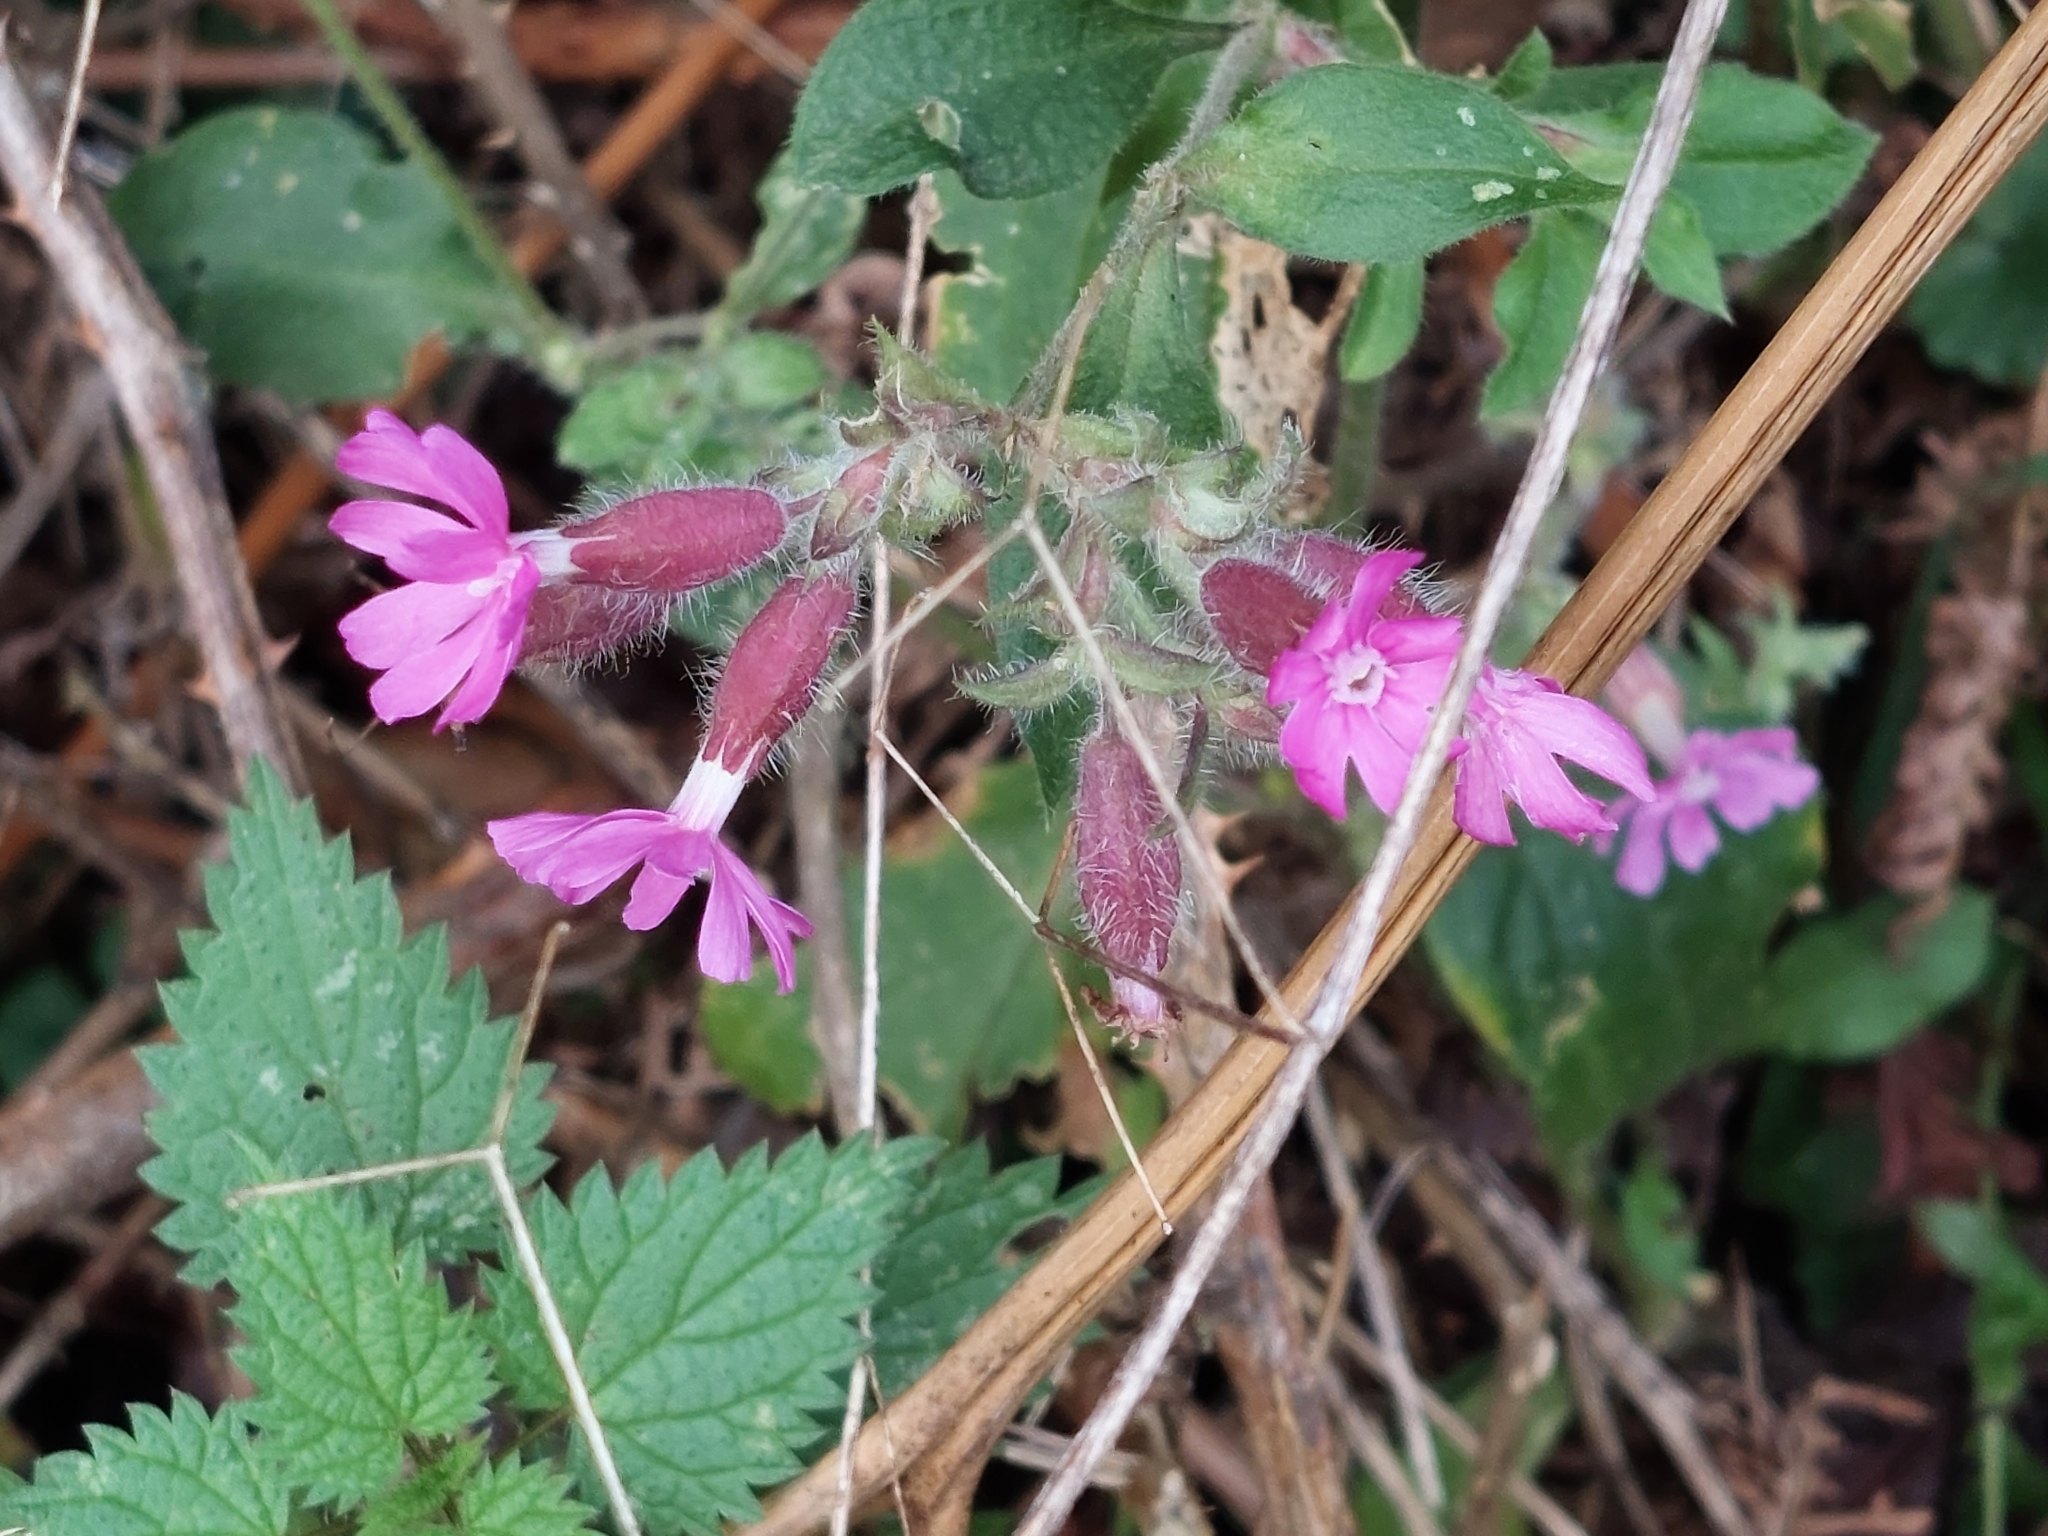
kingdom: Plantae
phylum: Tracheophyta
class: Magnoliopsida
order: Caryophyllales
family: Caryophyllaceae
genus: Silene
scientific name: Silene dioica
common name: Red campion
